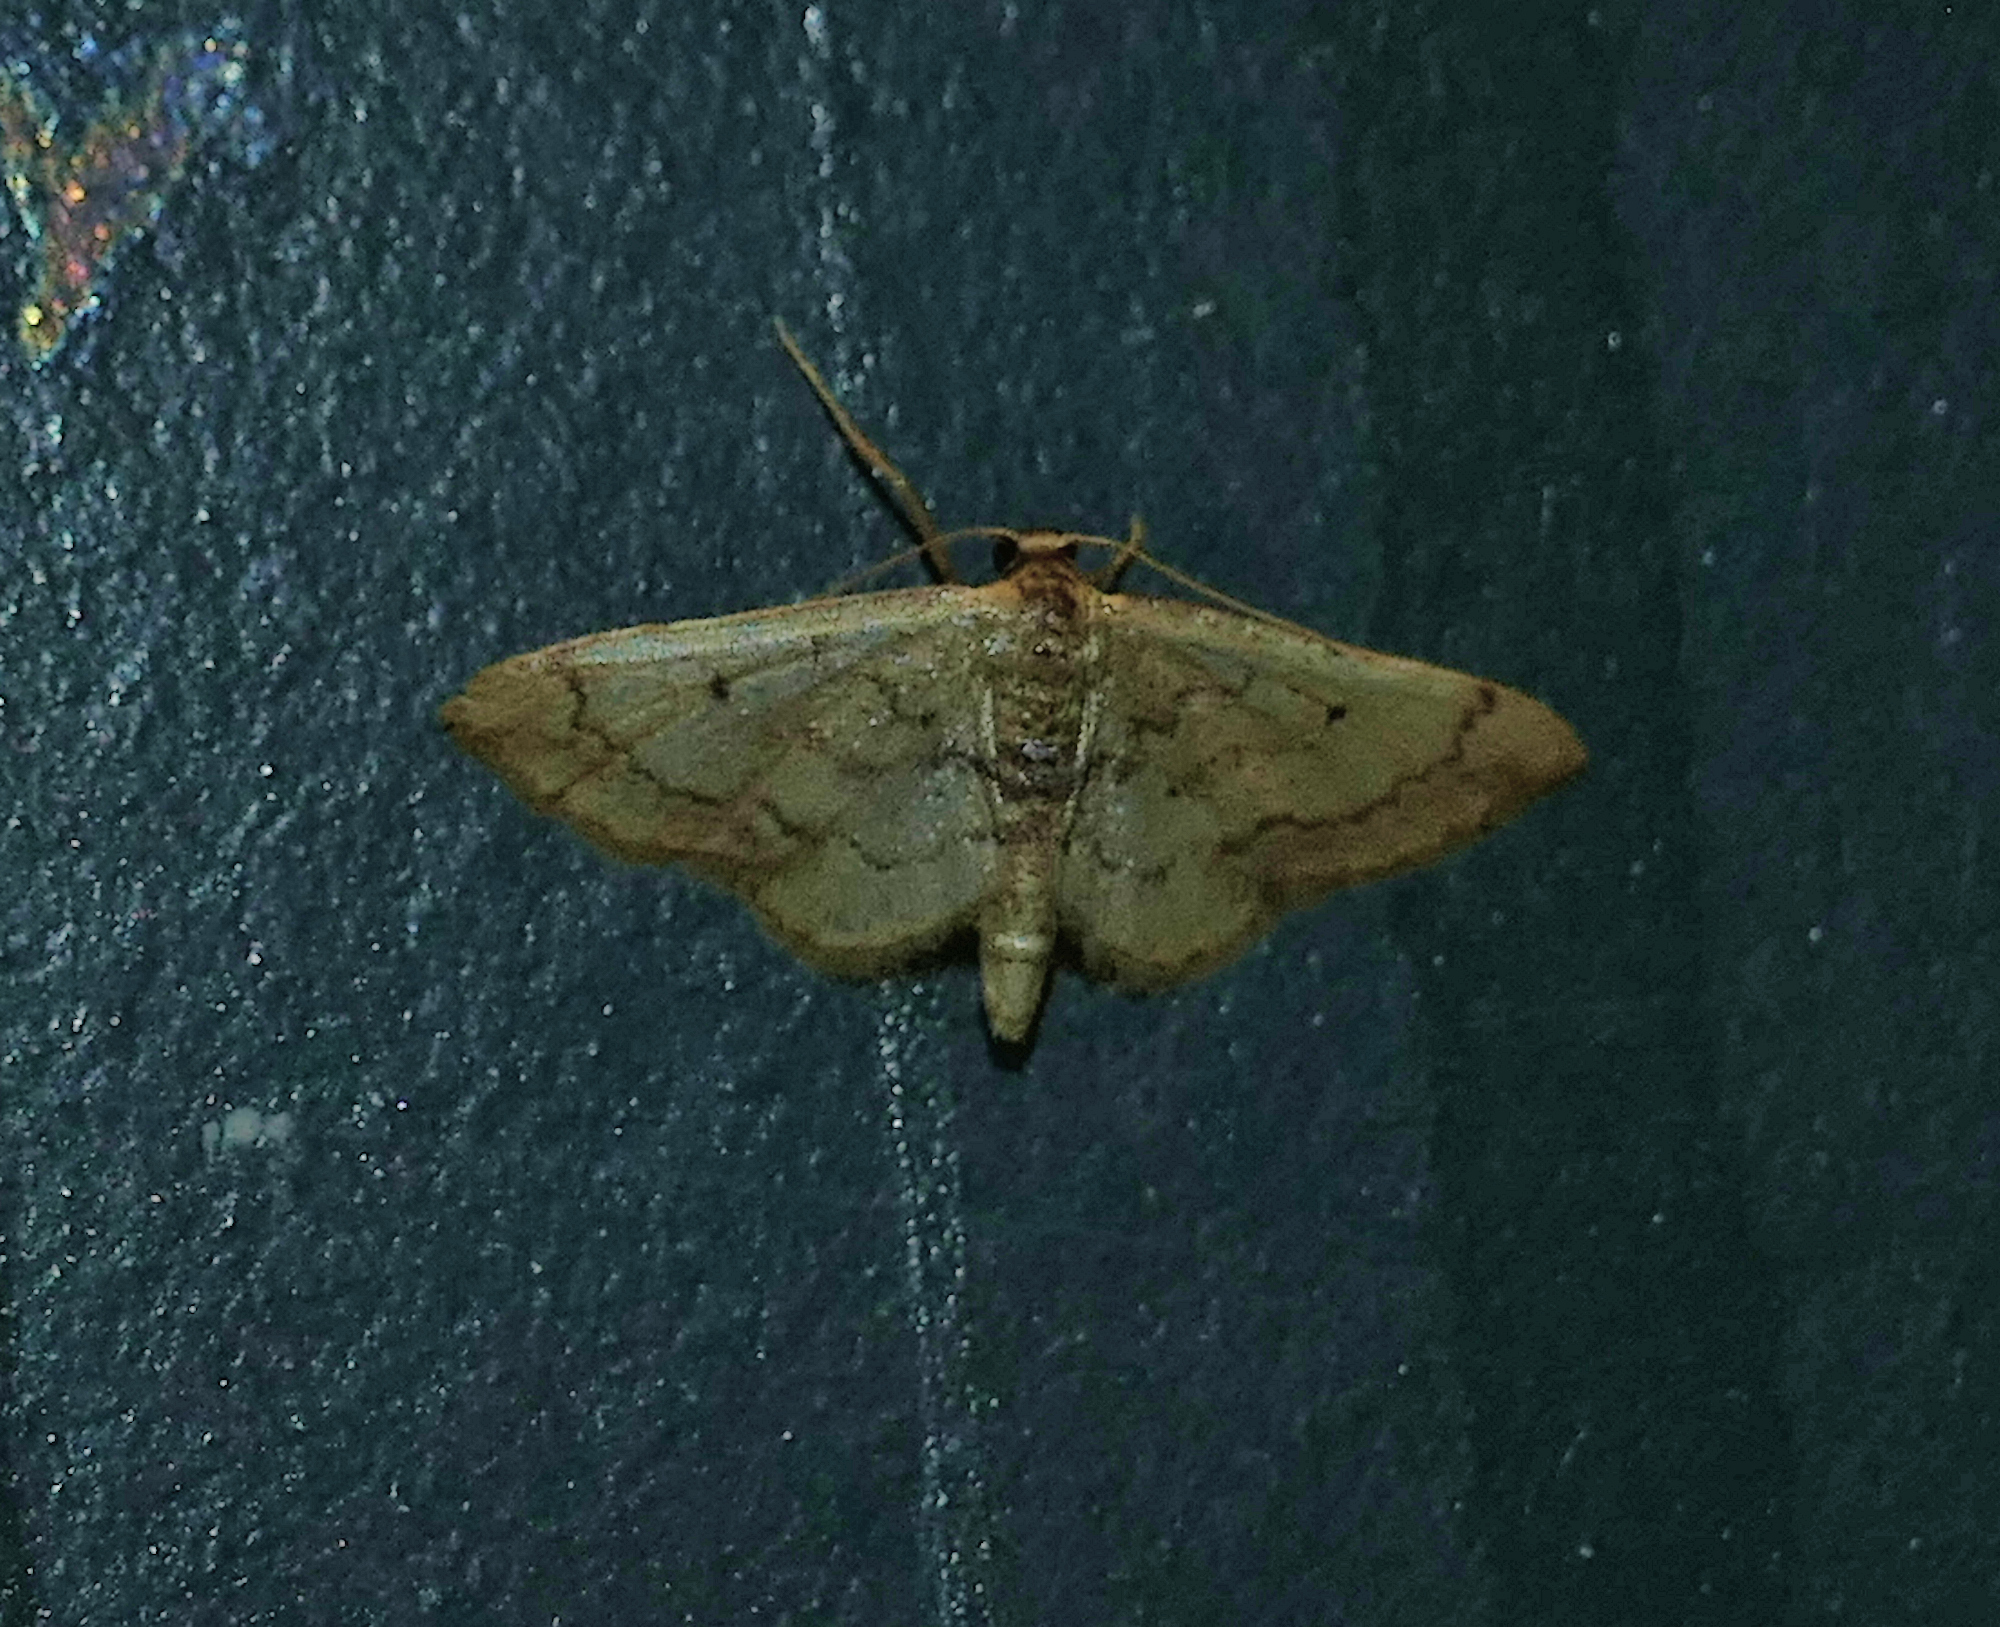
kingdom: Animalia
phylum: Arthropoda
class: Insecta
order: Lepidoptera
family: Geometridae
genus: Idaea
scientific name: Idaea demissaria
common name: Red-bordered wave
